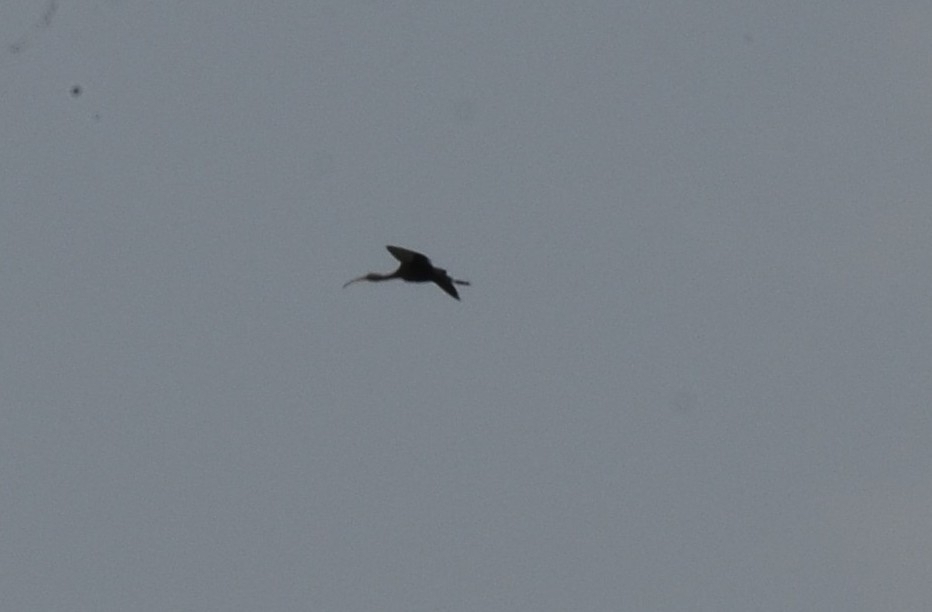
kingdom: Animalia
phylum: Chordata
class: Aves
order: Pelecaniformes
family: Threskiornithidae
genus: Plegadis
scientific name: Plegadis falcinellus
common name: Glossy ibis
